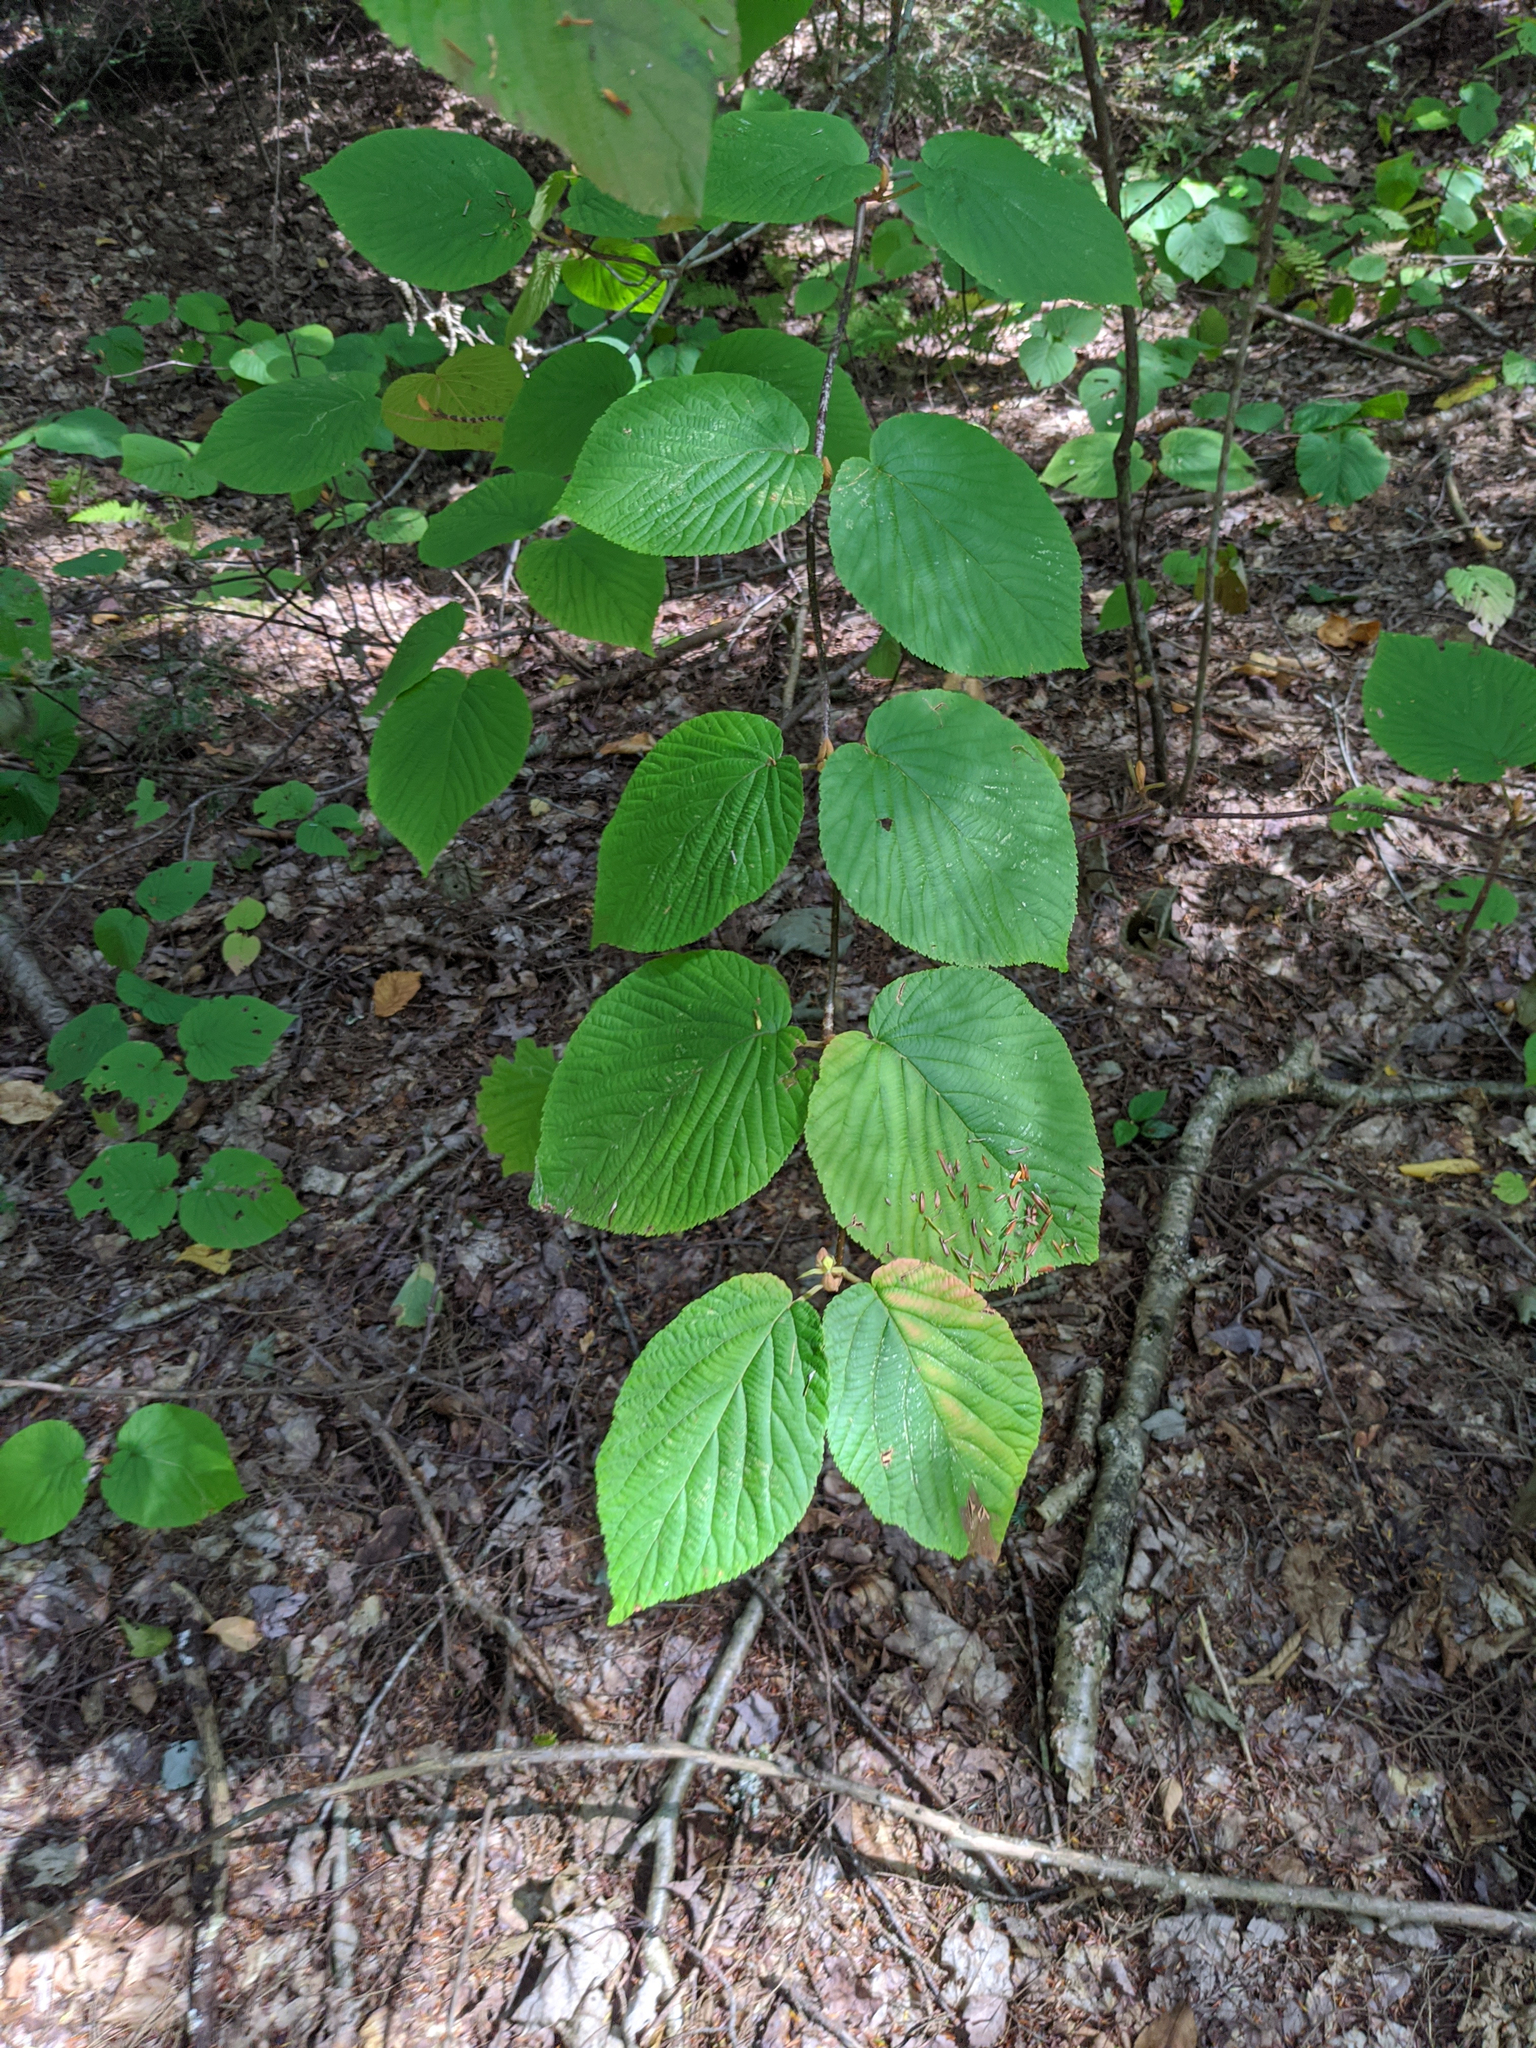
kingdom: Plantae
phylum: Tracheophyta
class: Magnoliopsida
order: Dipsacales
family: Viburnaceae
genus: Viburnum
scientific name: Viburnum lantanoides
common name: Hobblebush
